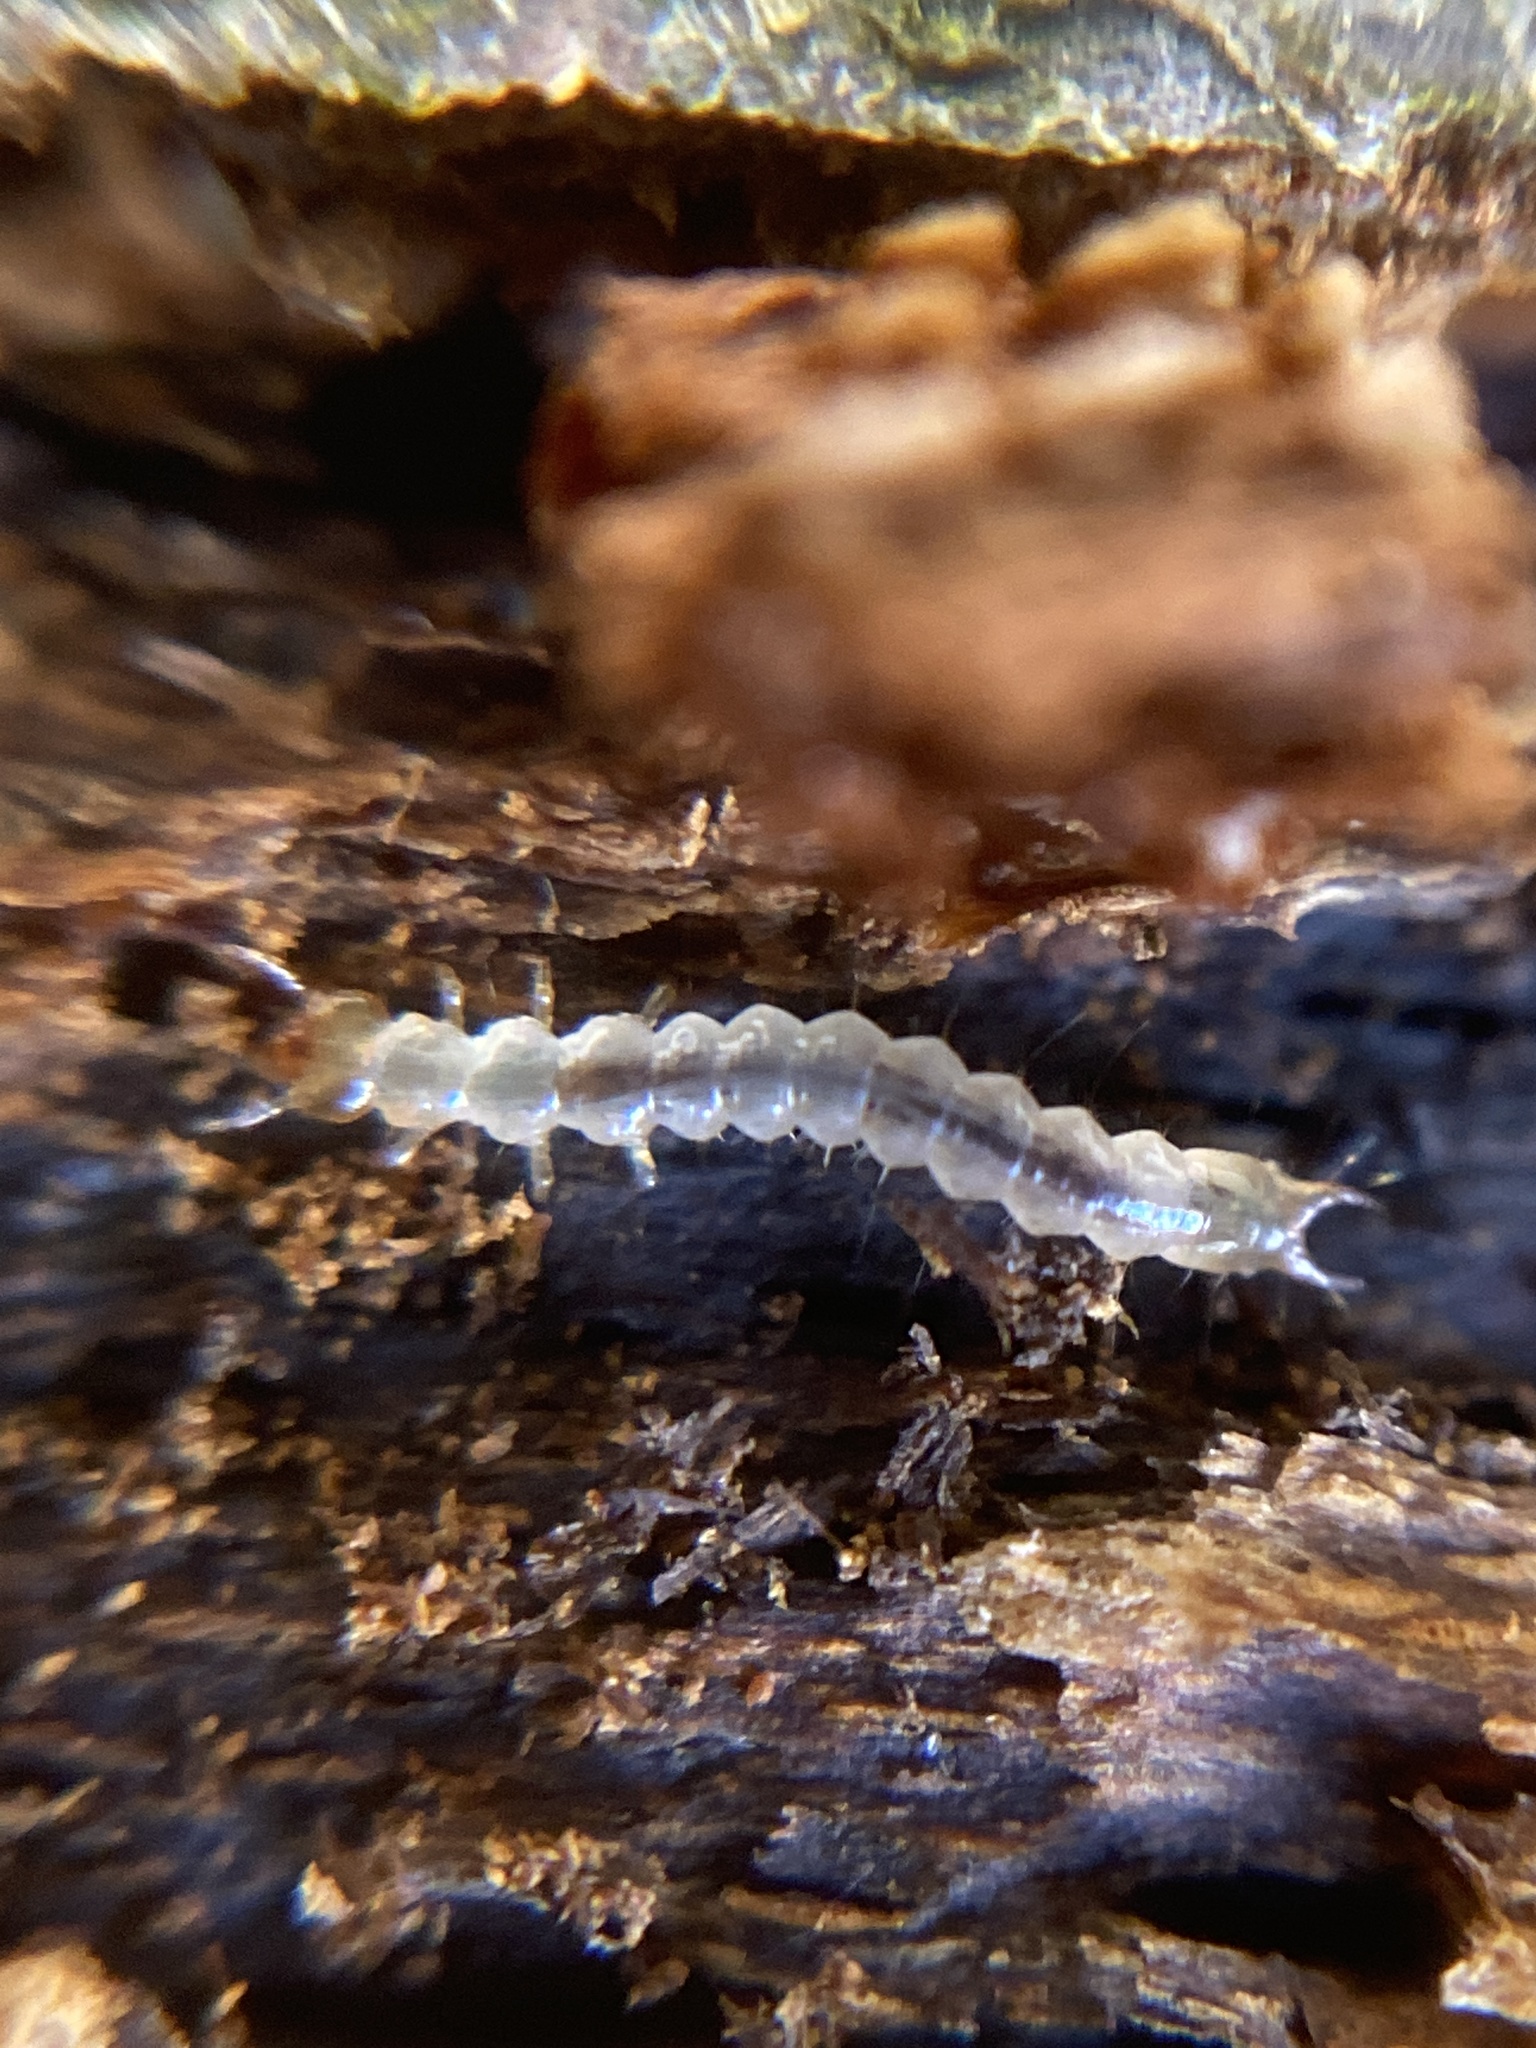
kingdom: Animalia
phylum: Arthropoda
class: Insecta
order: Coleoptera
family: Pyrochroidae
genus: Schizotus
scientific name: Schizotus pectinicornis
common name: Scarce cardinal beetle
